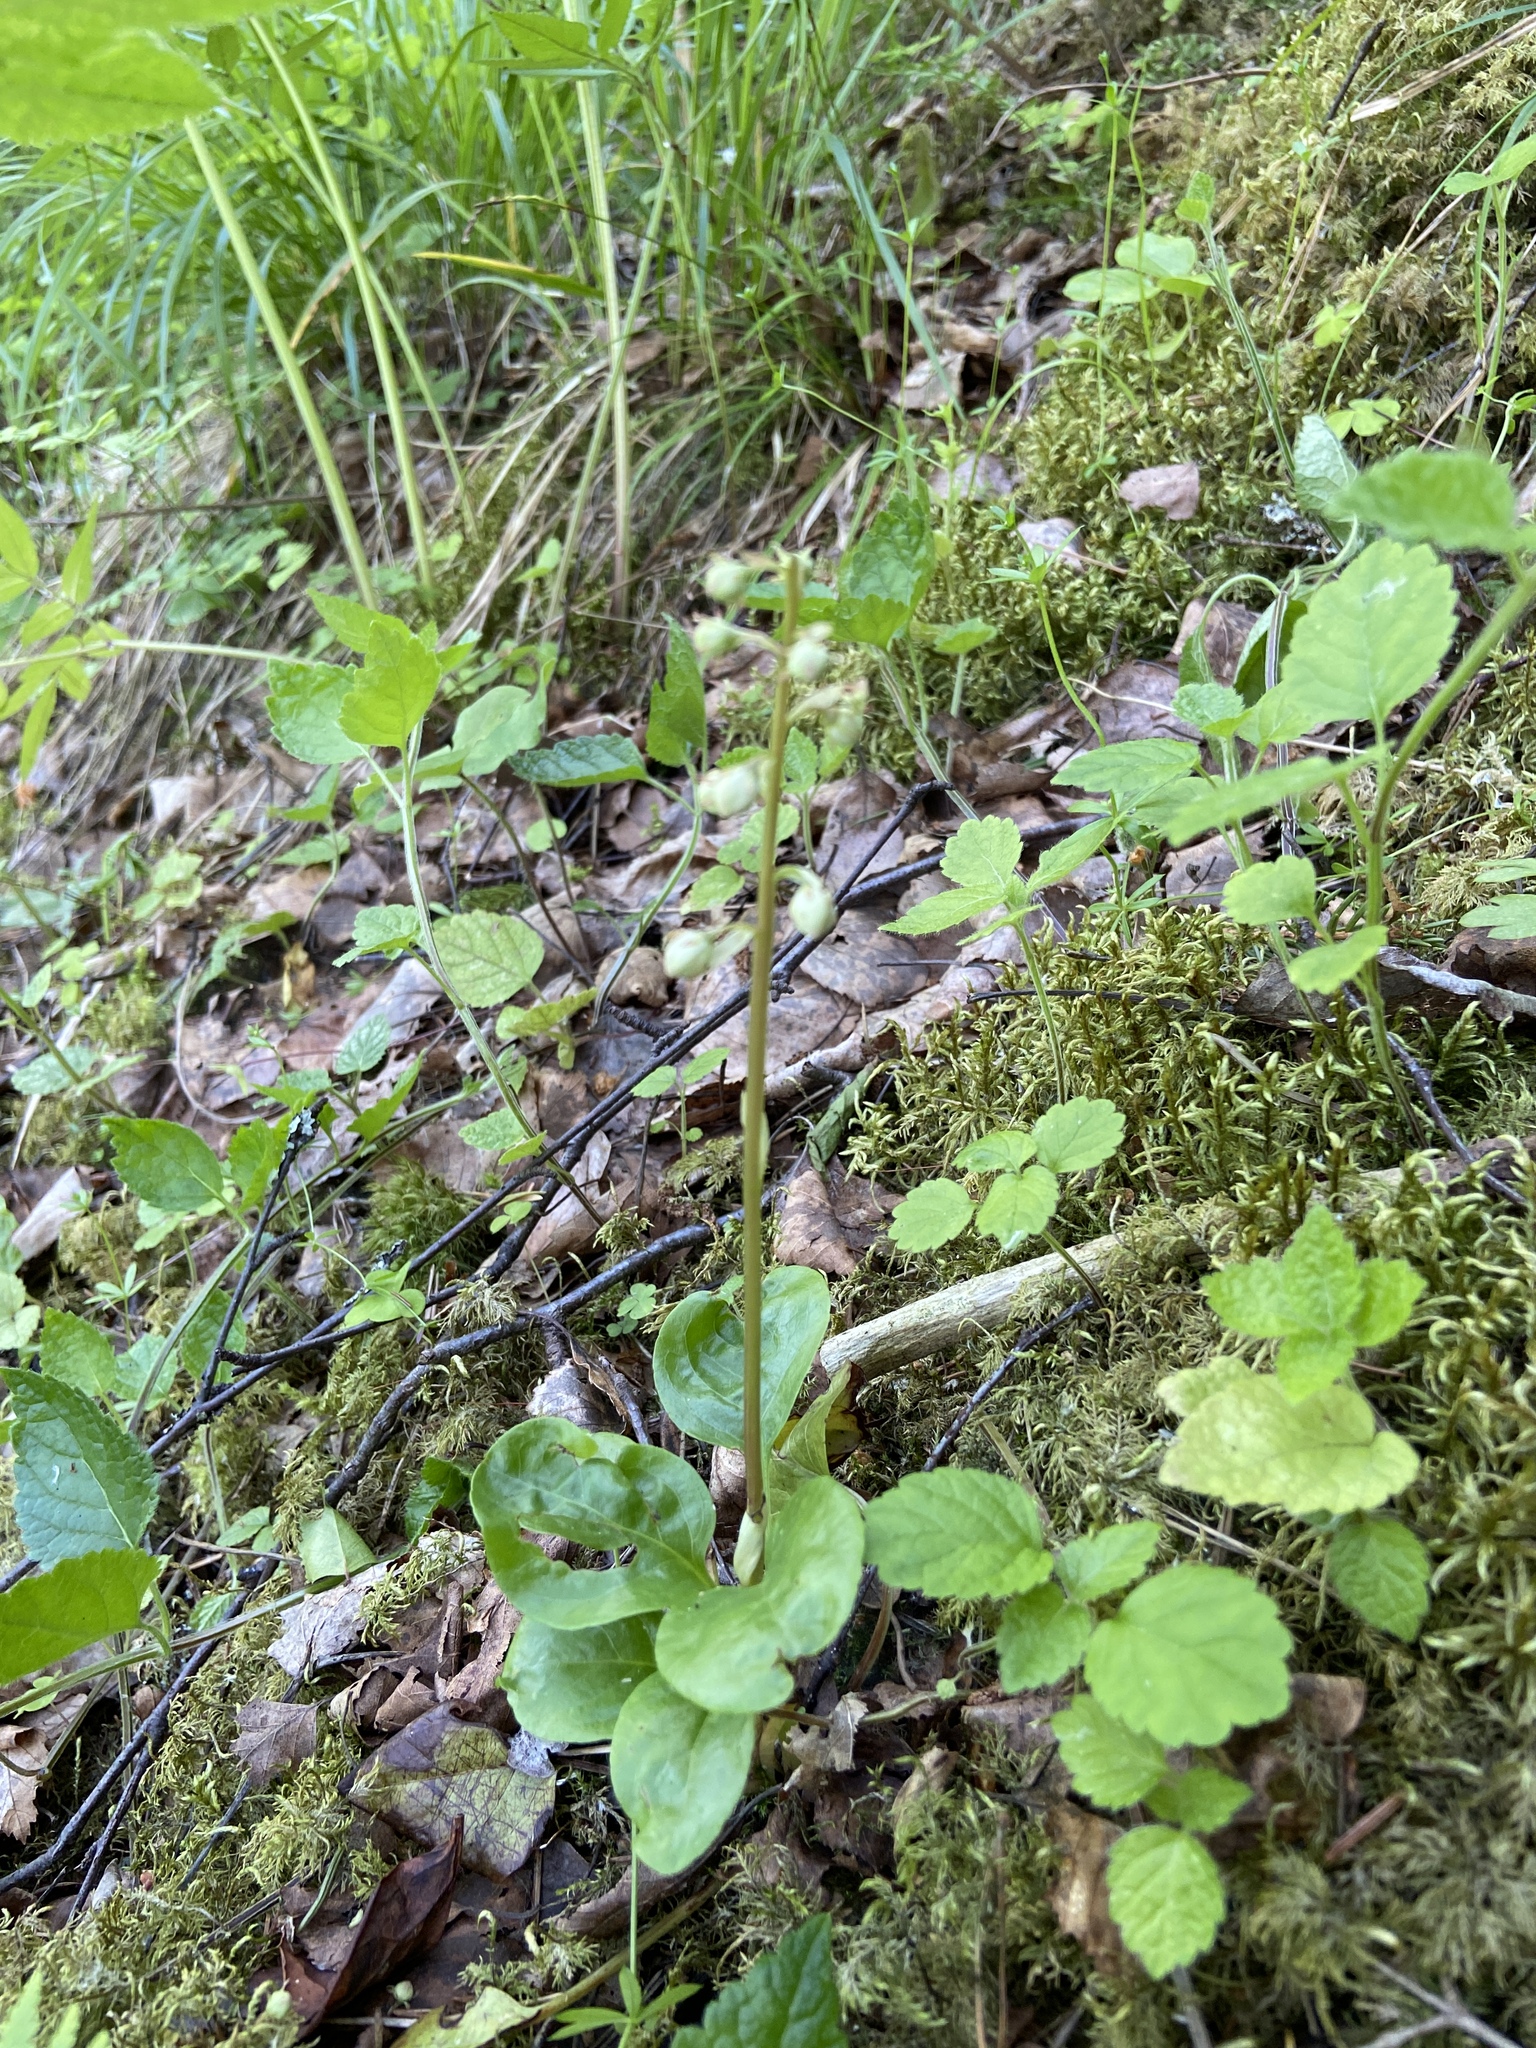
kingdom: Plantae
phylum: Tracheophyta
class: Magnoliopsida
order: Ericales
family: Ericaceae
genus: Pyrola
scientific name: Pyrola minor
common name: Common wintergreen
